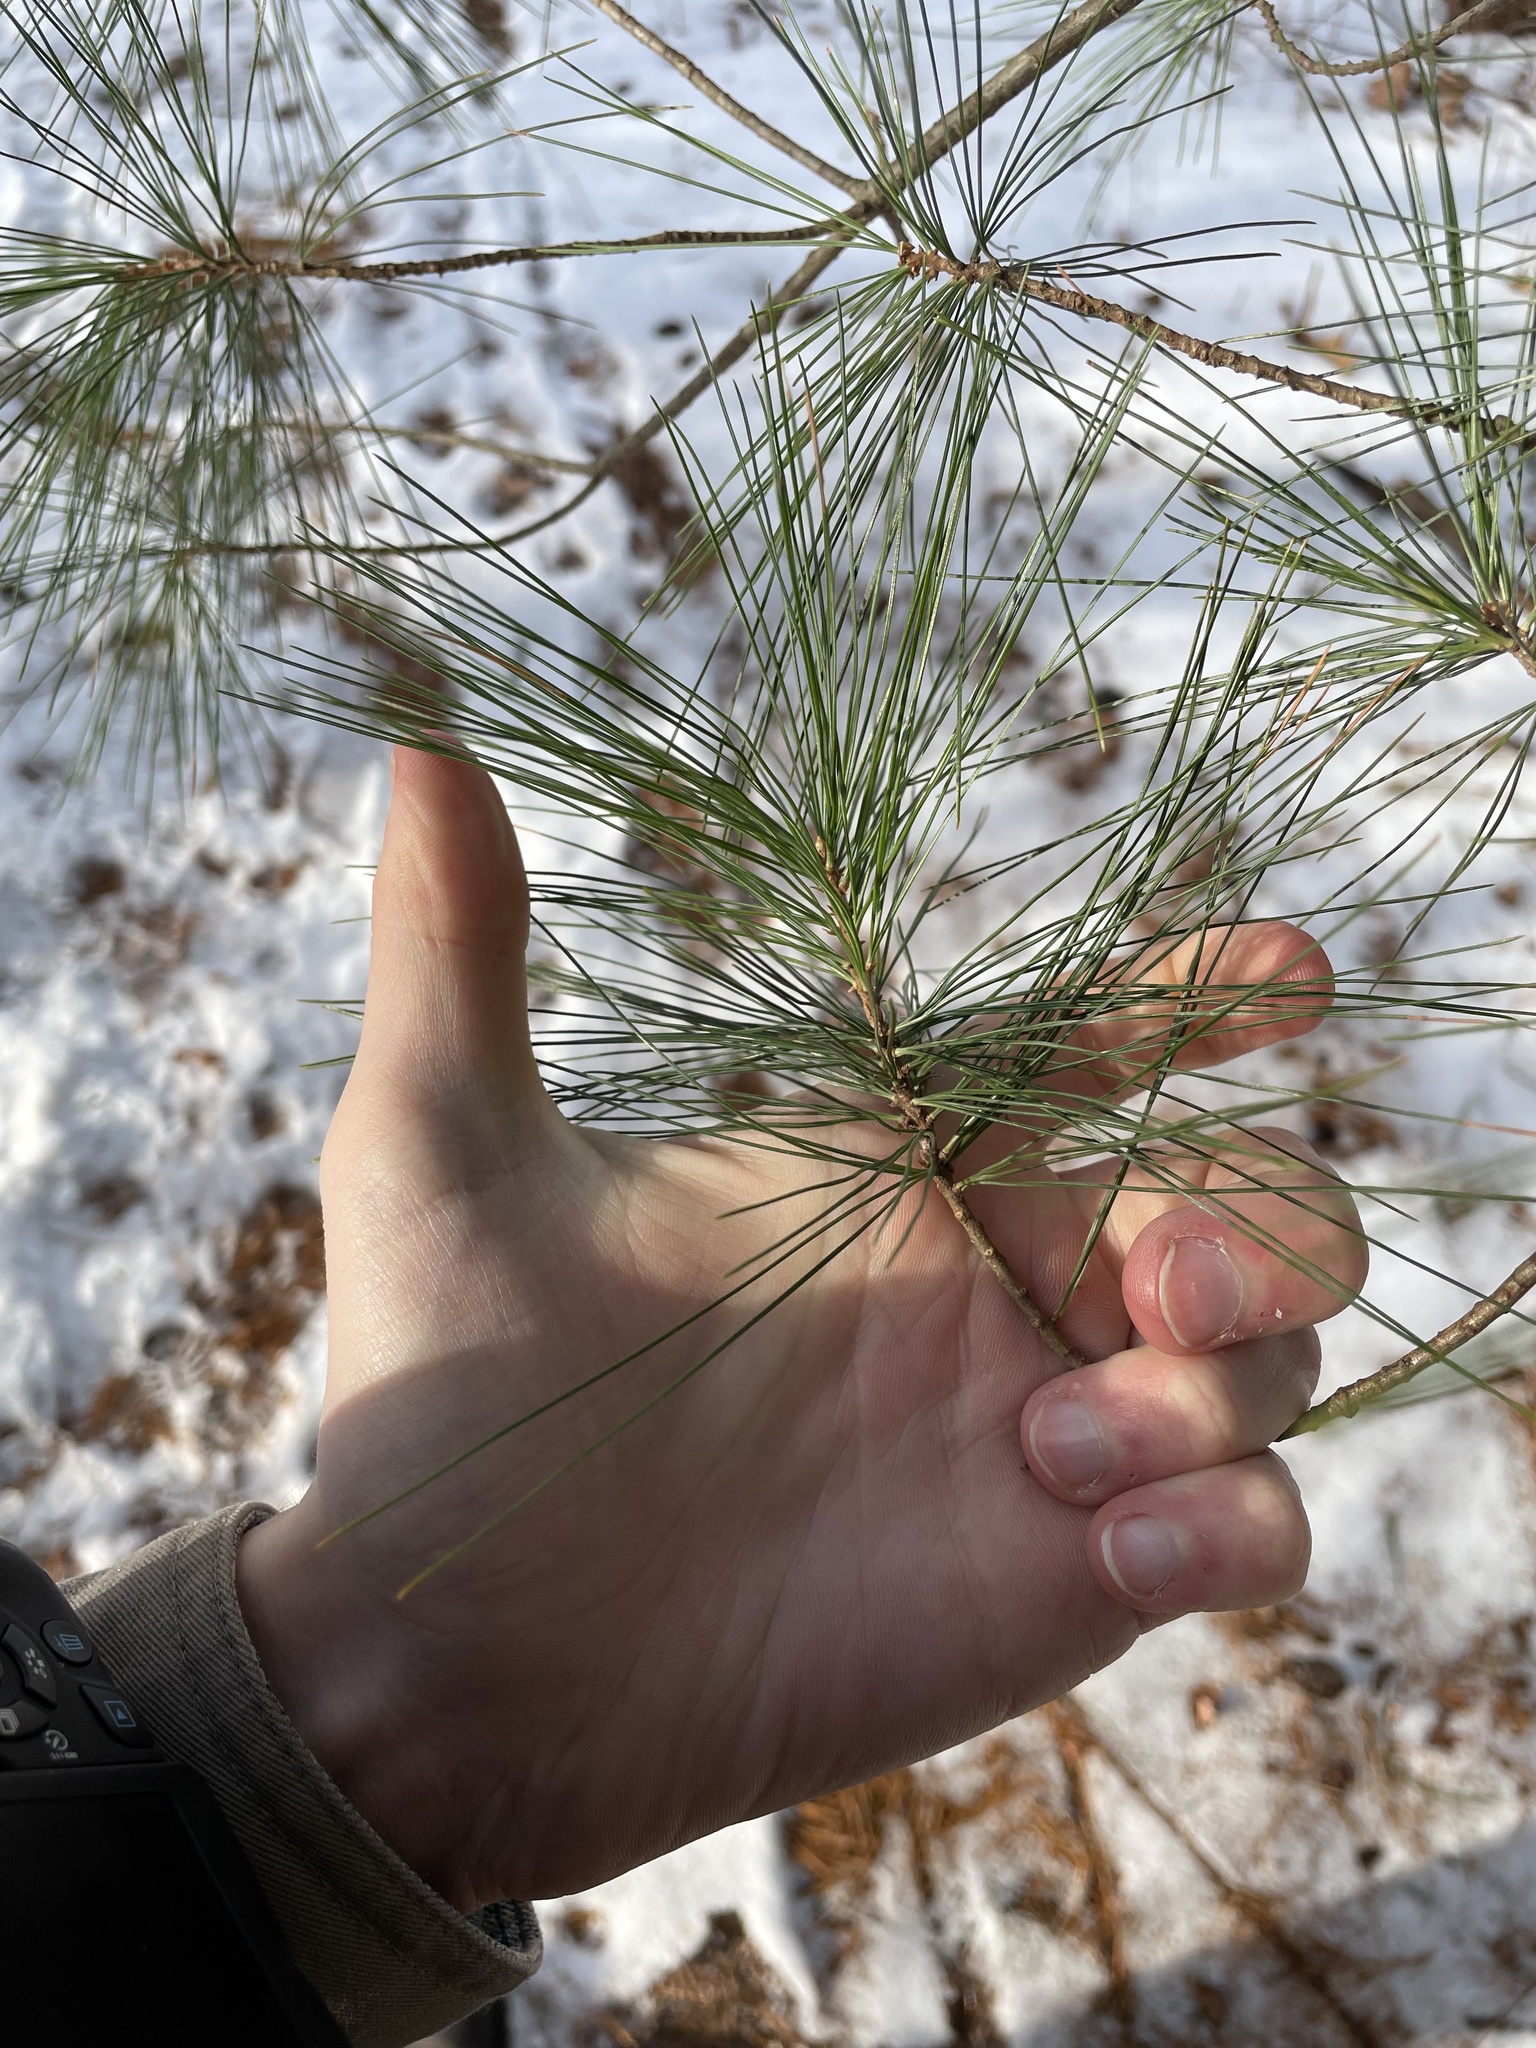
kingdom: Plantae
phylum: Tracheophyta
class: Pinopsida
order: Pinales
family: Pinaceae
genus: Pinus
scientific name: Pinus strobus
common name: Weymouth pine
